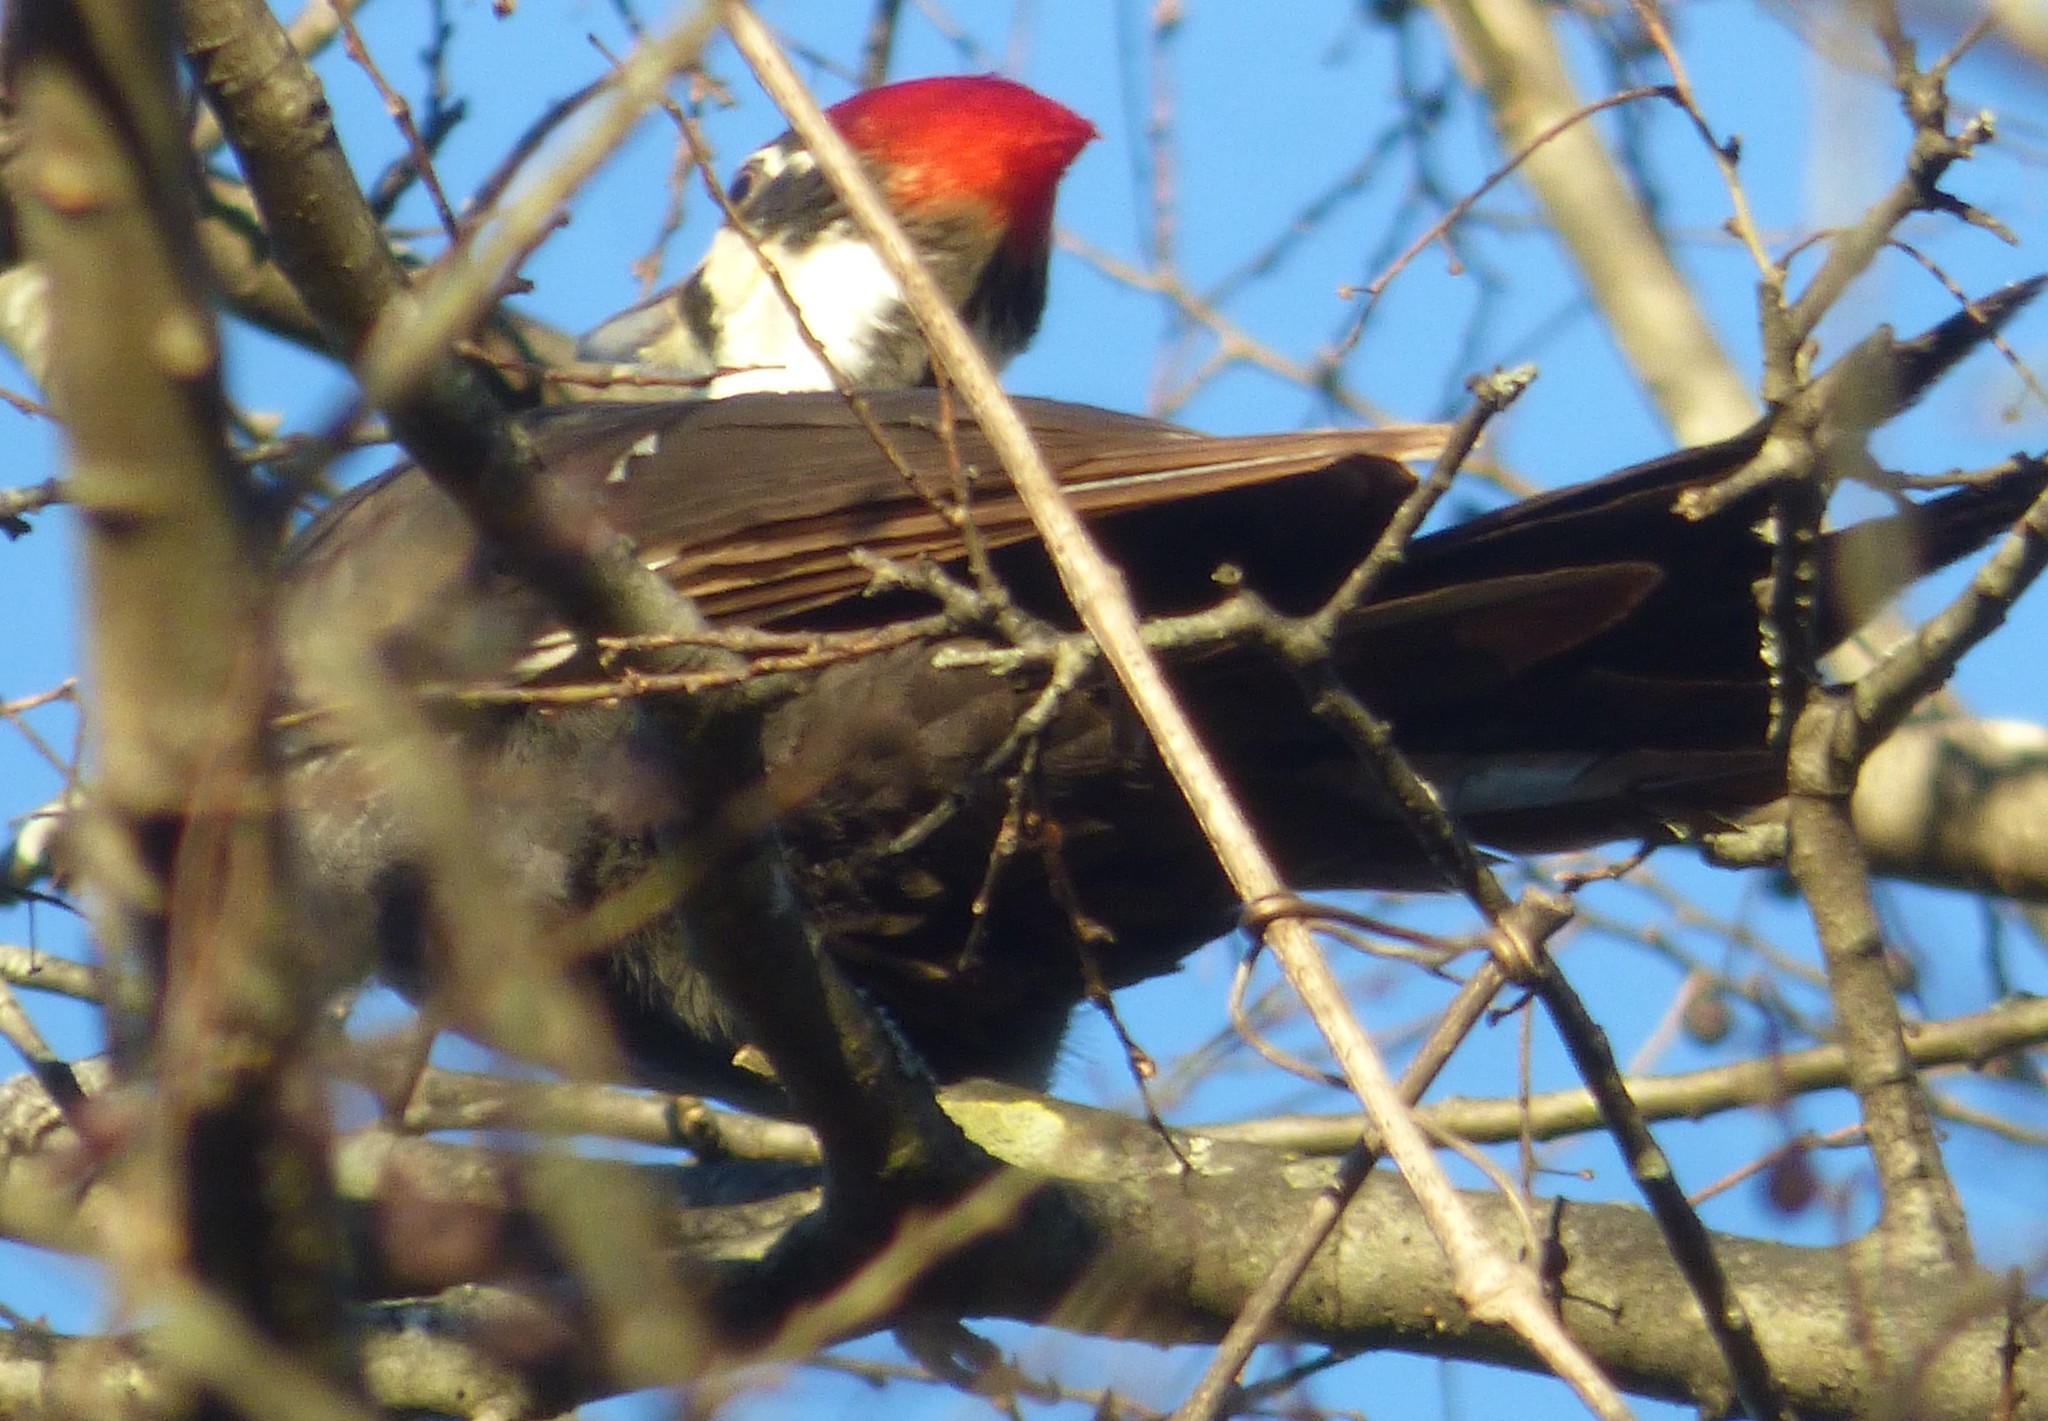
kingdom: Animalia
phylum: Chordata
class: Aves
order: Piciformes
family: Picidae
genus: Dryocopus
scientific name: Dryocopus pileatus
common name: Pileated woodpecker
